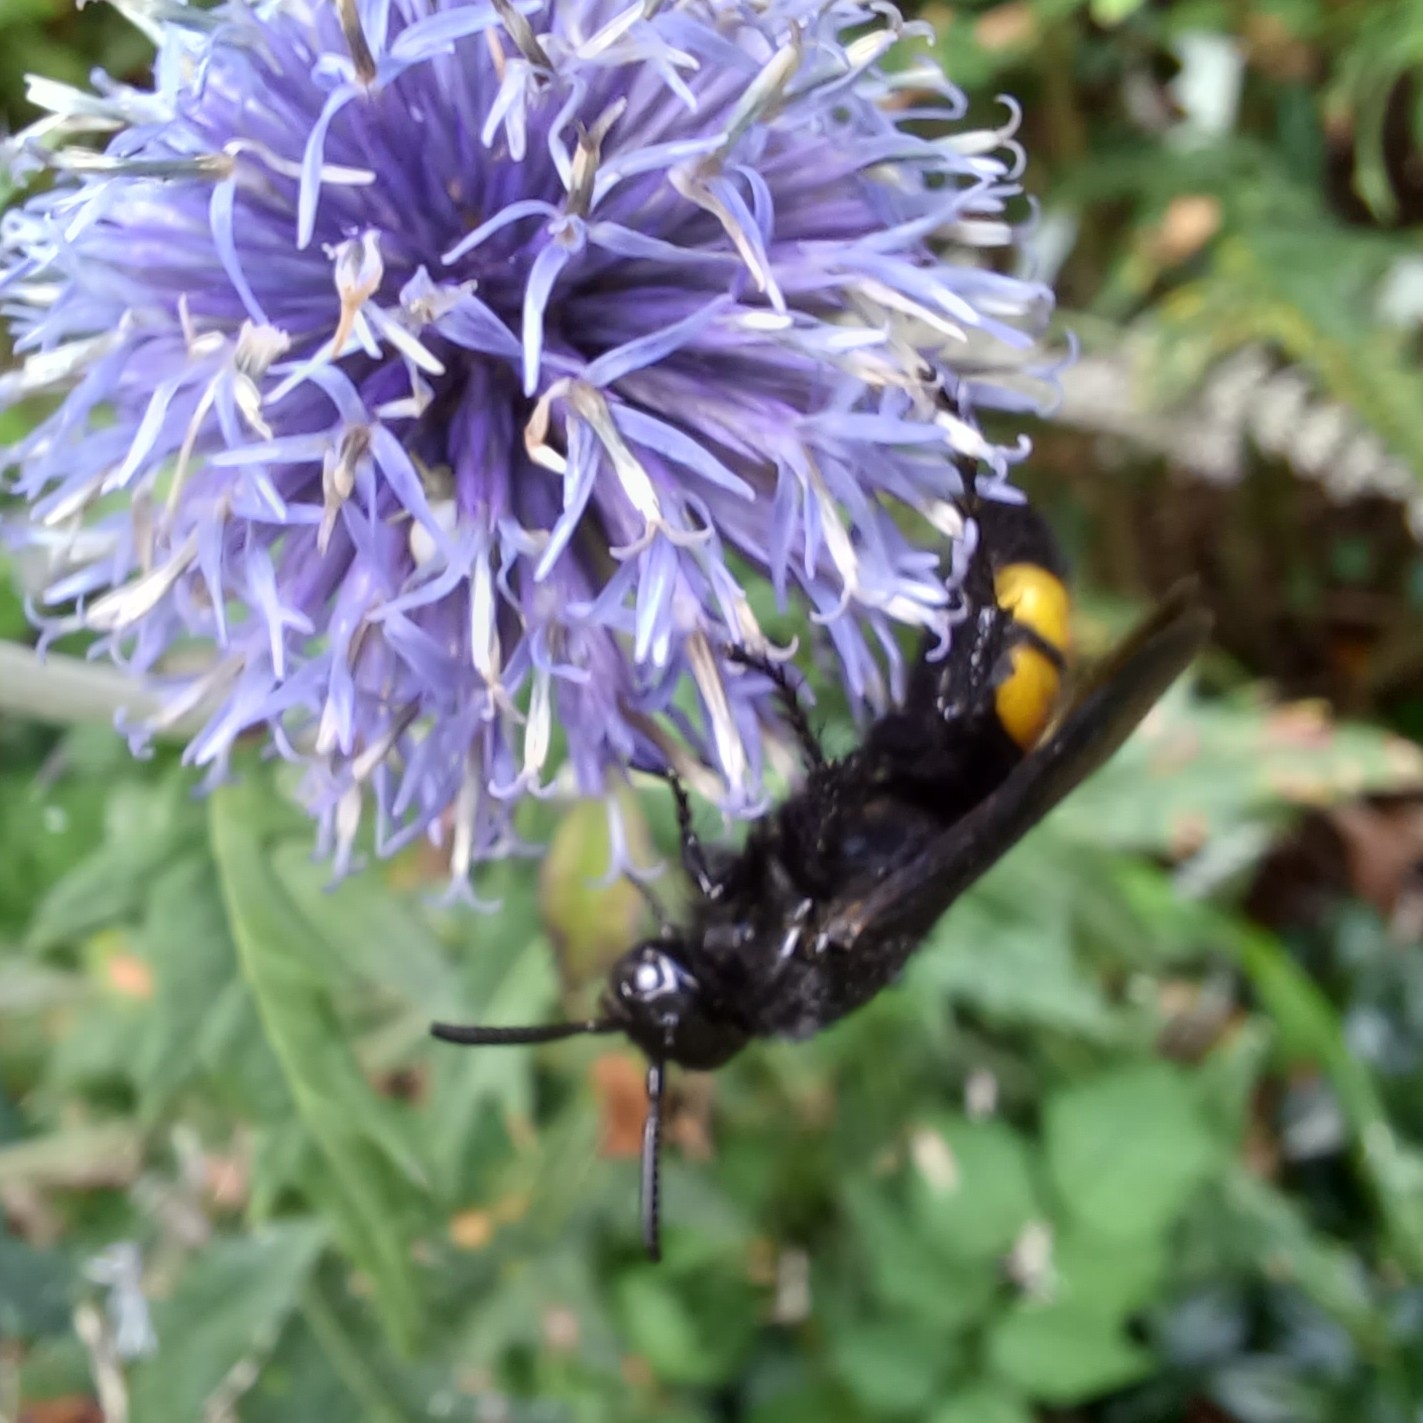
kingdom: Animalia
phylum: Arthropoda
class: Insecta
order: Hymenoptera
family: Scoliidae
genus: Scolia
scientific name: Scolia hirta
